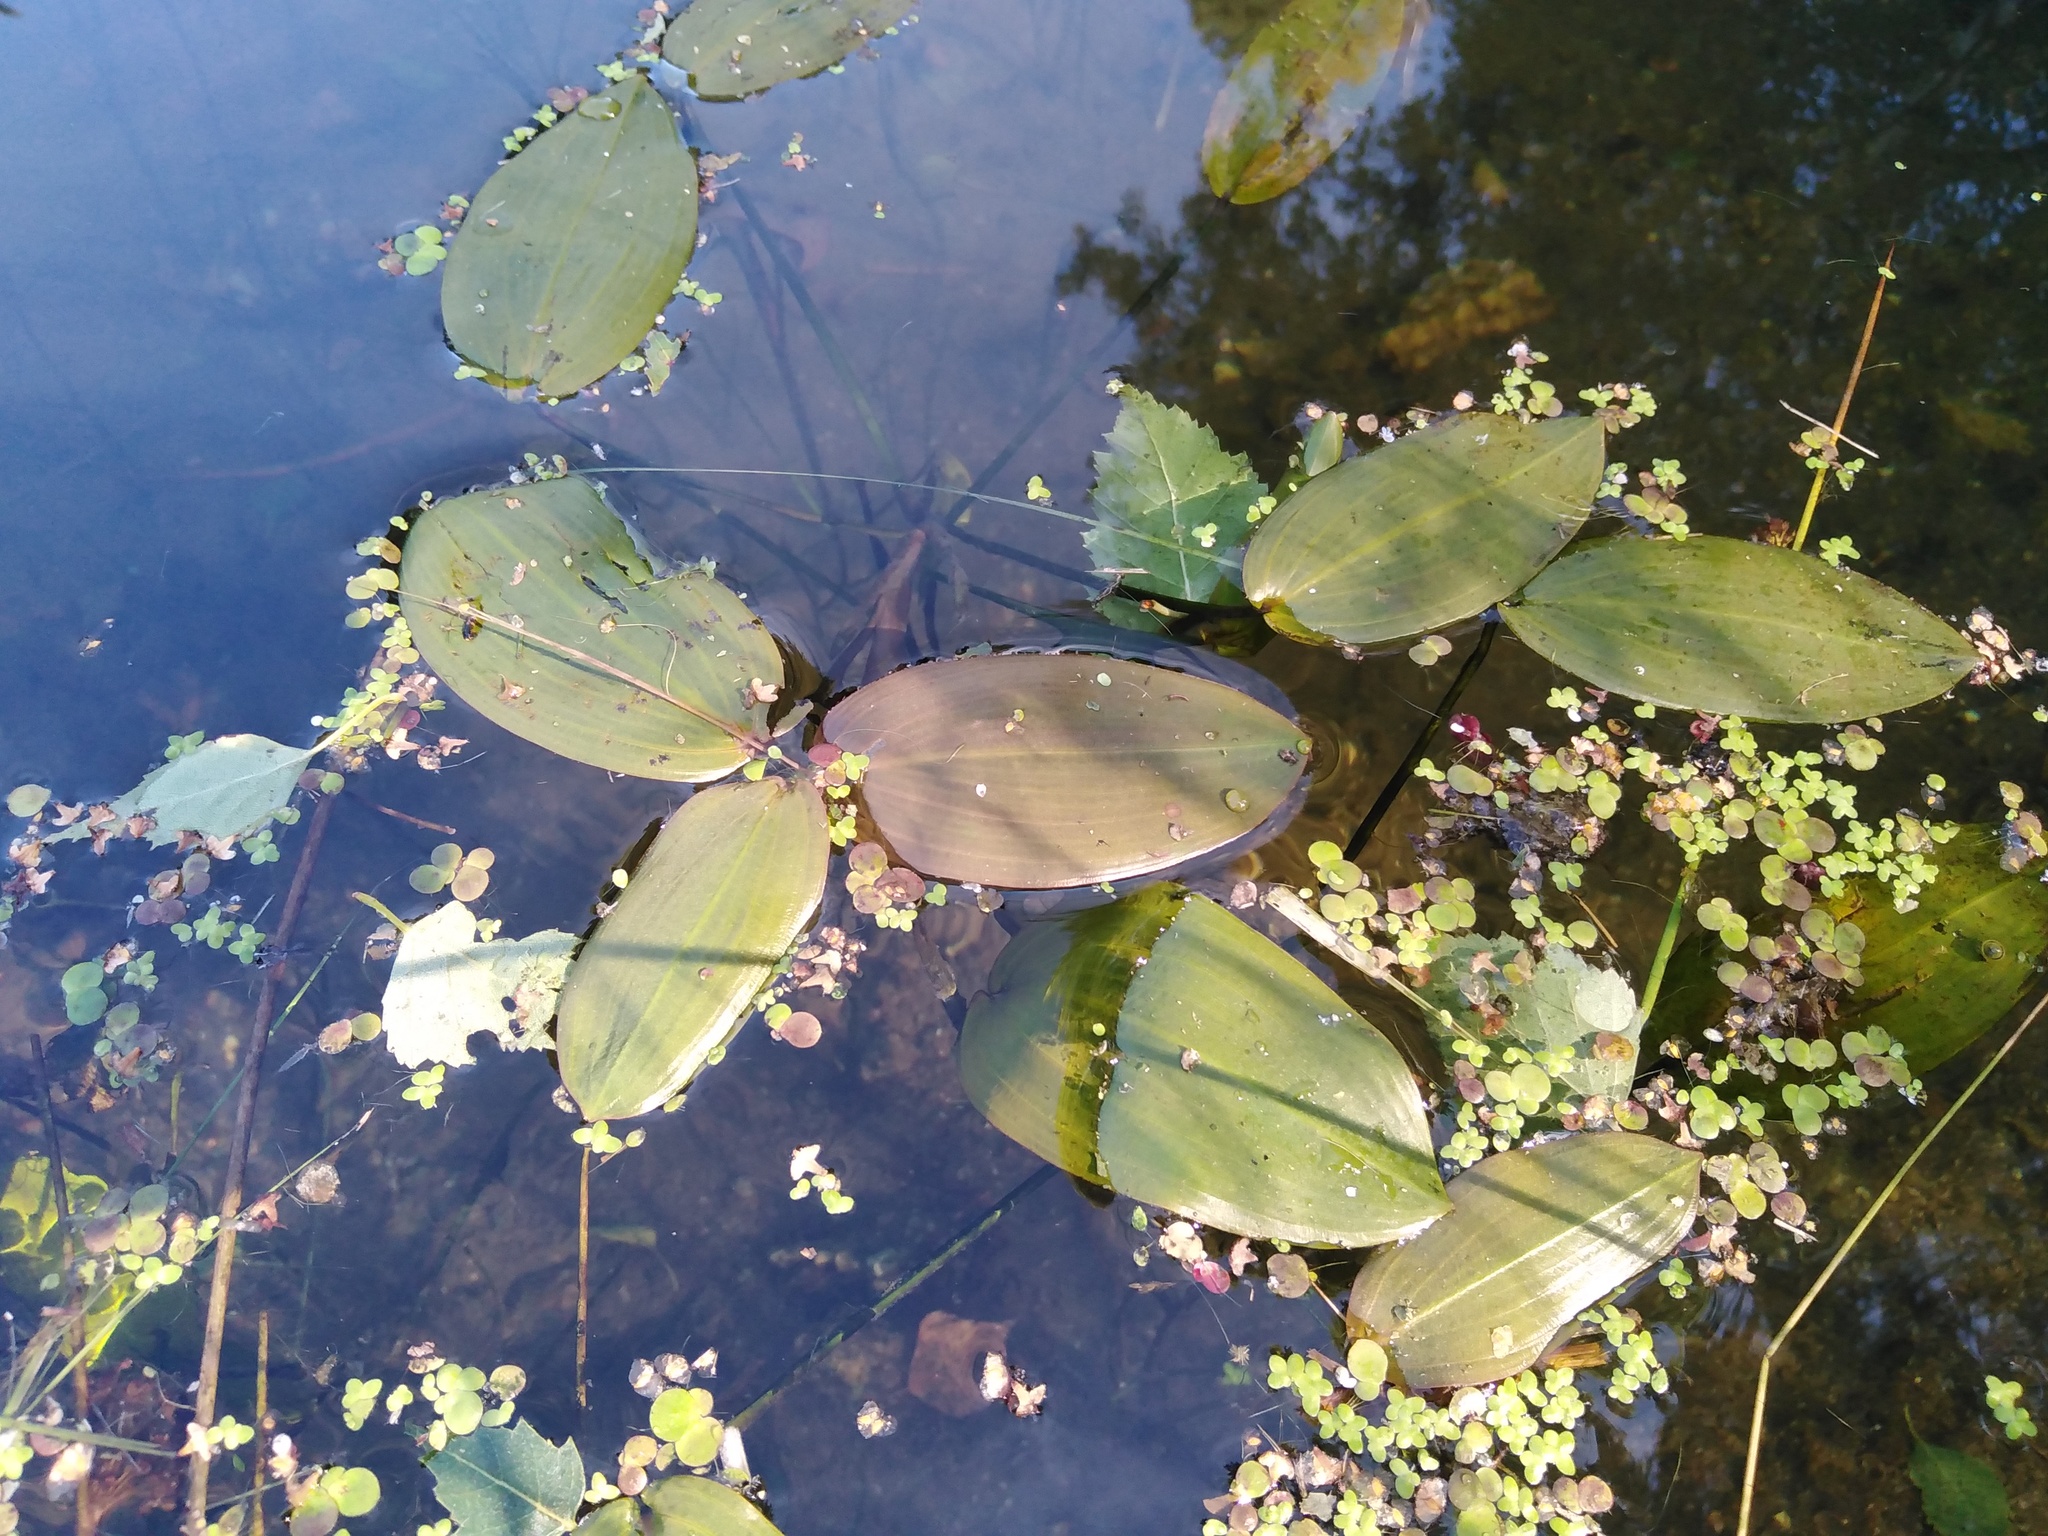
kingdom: Plantae
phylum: Tracheophyta
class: Liliopsida
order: Alismatales
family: Potamogetonaceae
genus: Potamogeton
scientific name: Potamogeton natans
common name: Broad-leaved pondweed
